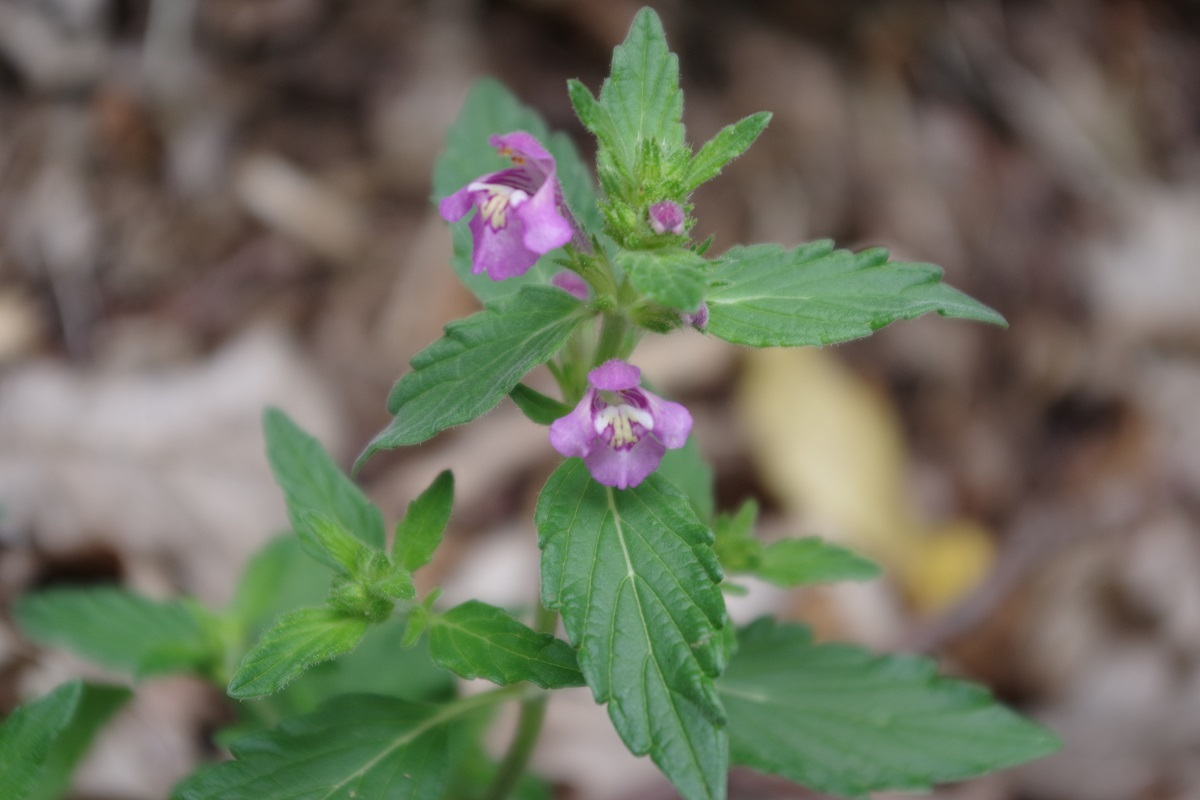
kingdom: Plantae
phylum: Tracheophyta
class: Magnoliopsida
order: Lamiales
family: Lamiaceae
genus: Galeopsis
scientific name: Galeopsis ladanum
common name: Broad-leaved hemp-nettle
